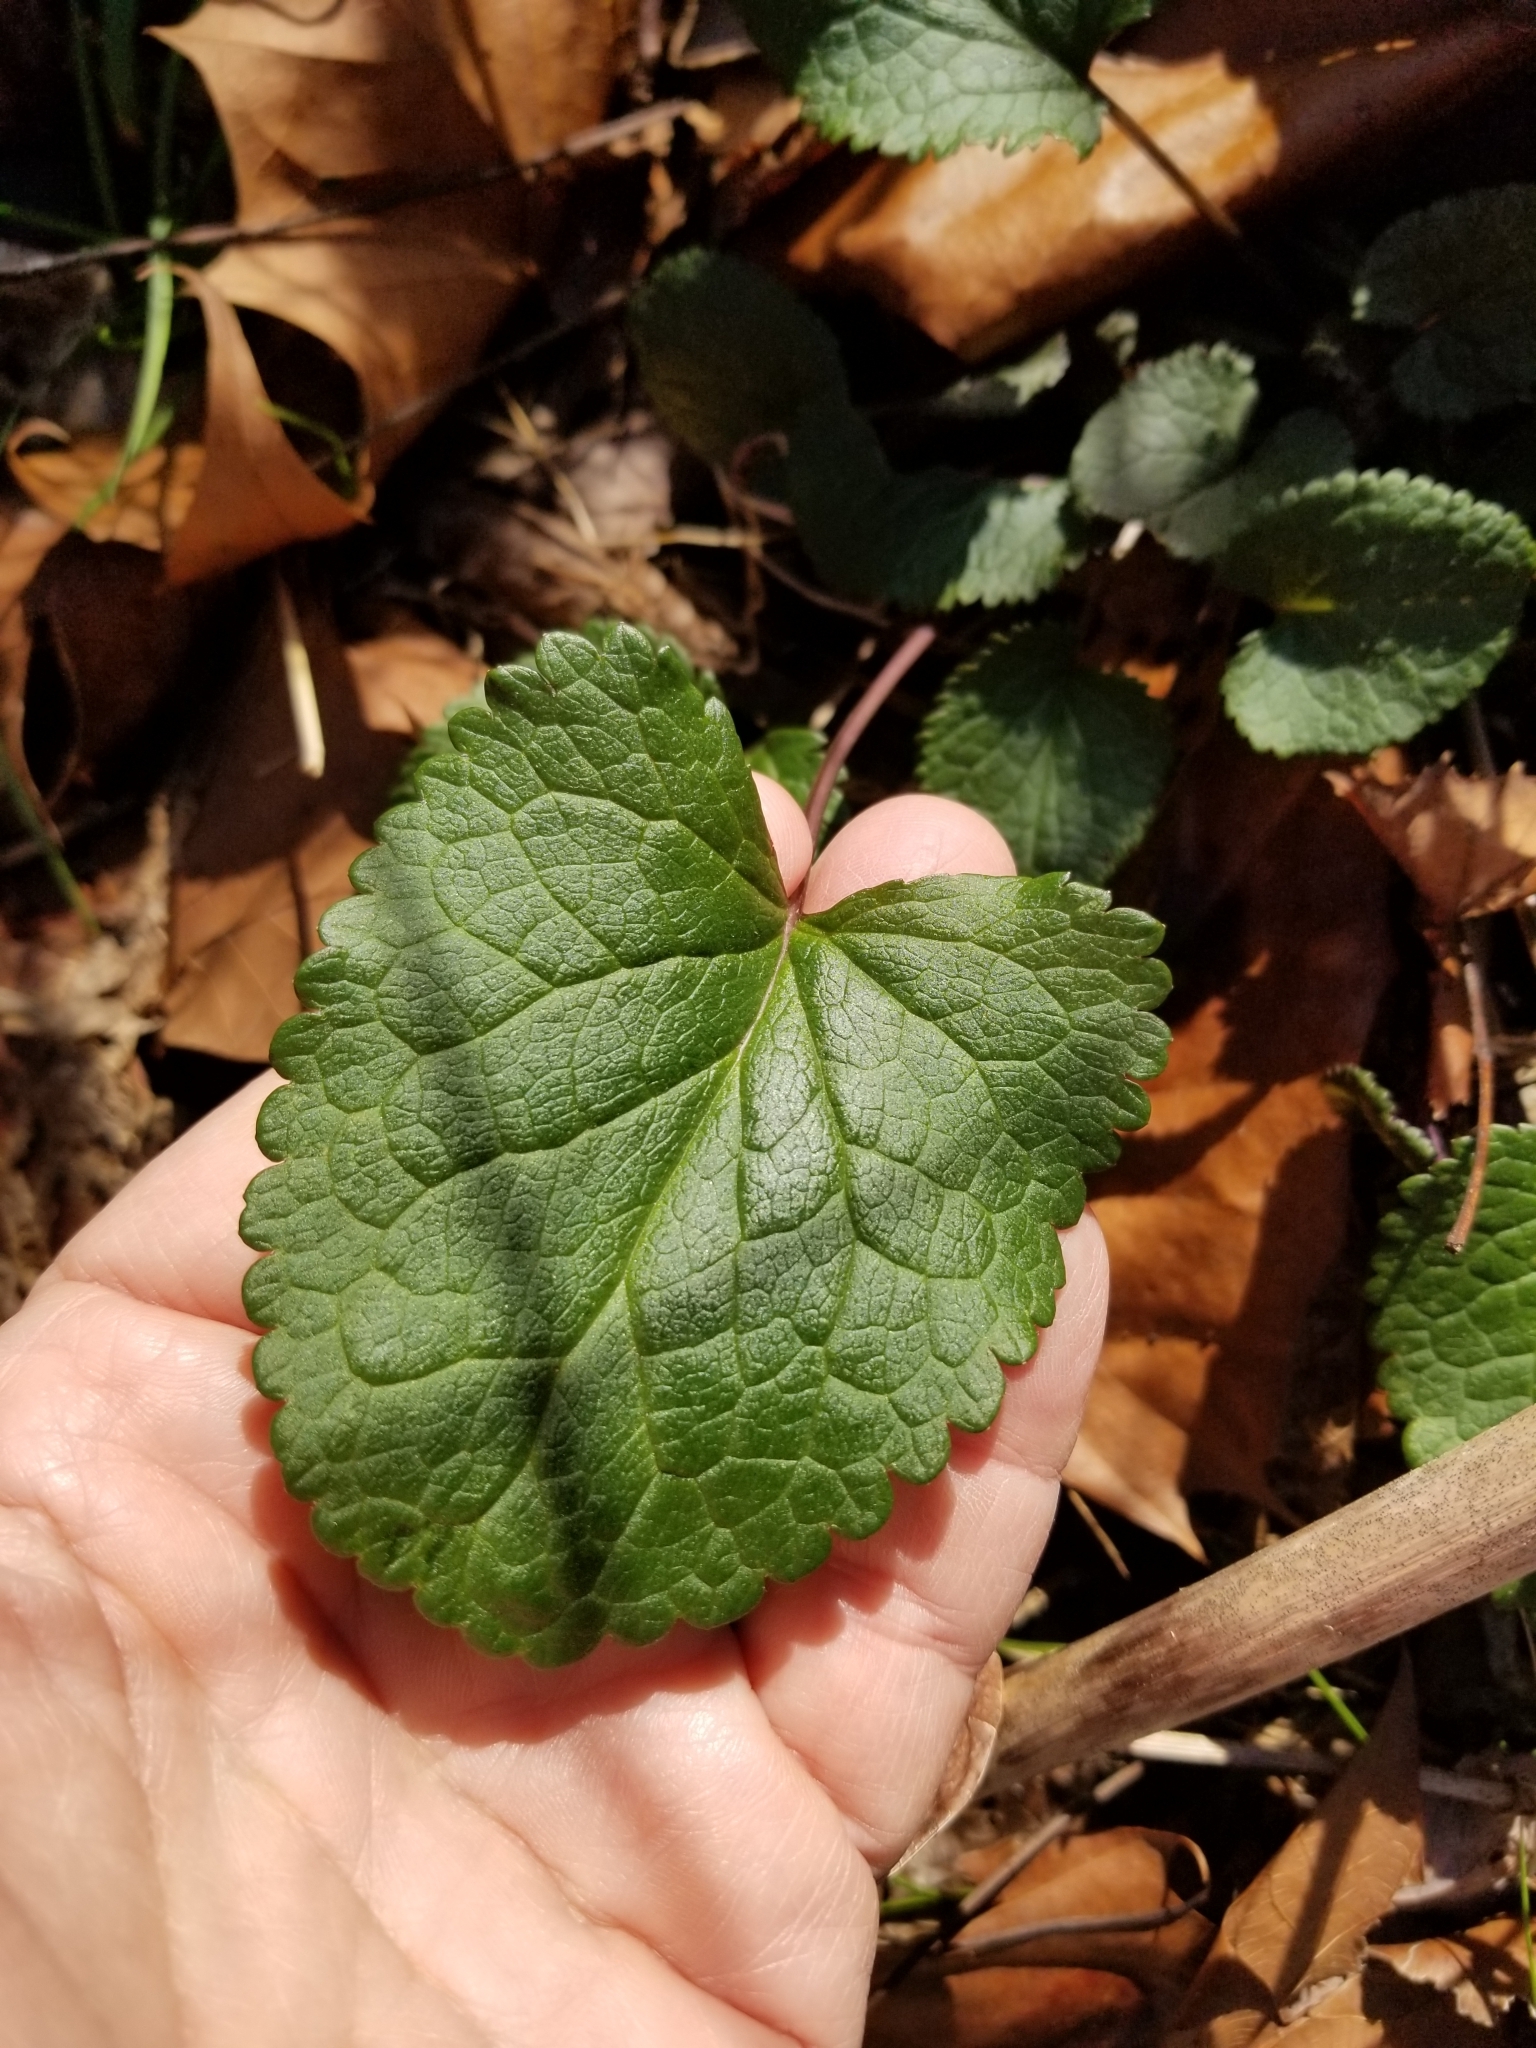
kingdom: Plantae
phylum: Tracheophyta
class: Magnoliopsida
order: Asterales
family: Asteraceae
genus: Packera
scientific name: Packera aurea
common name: Golden groundsel
